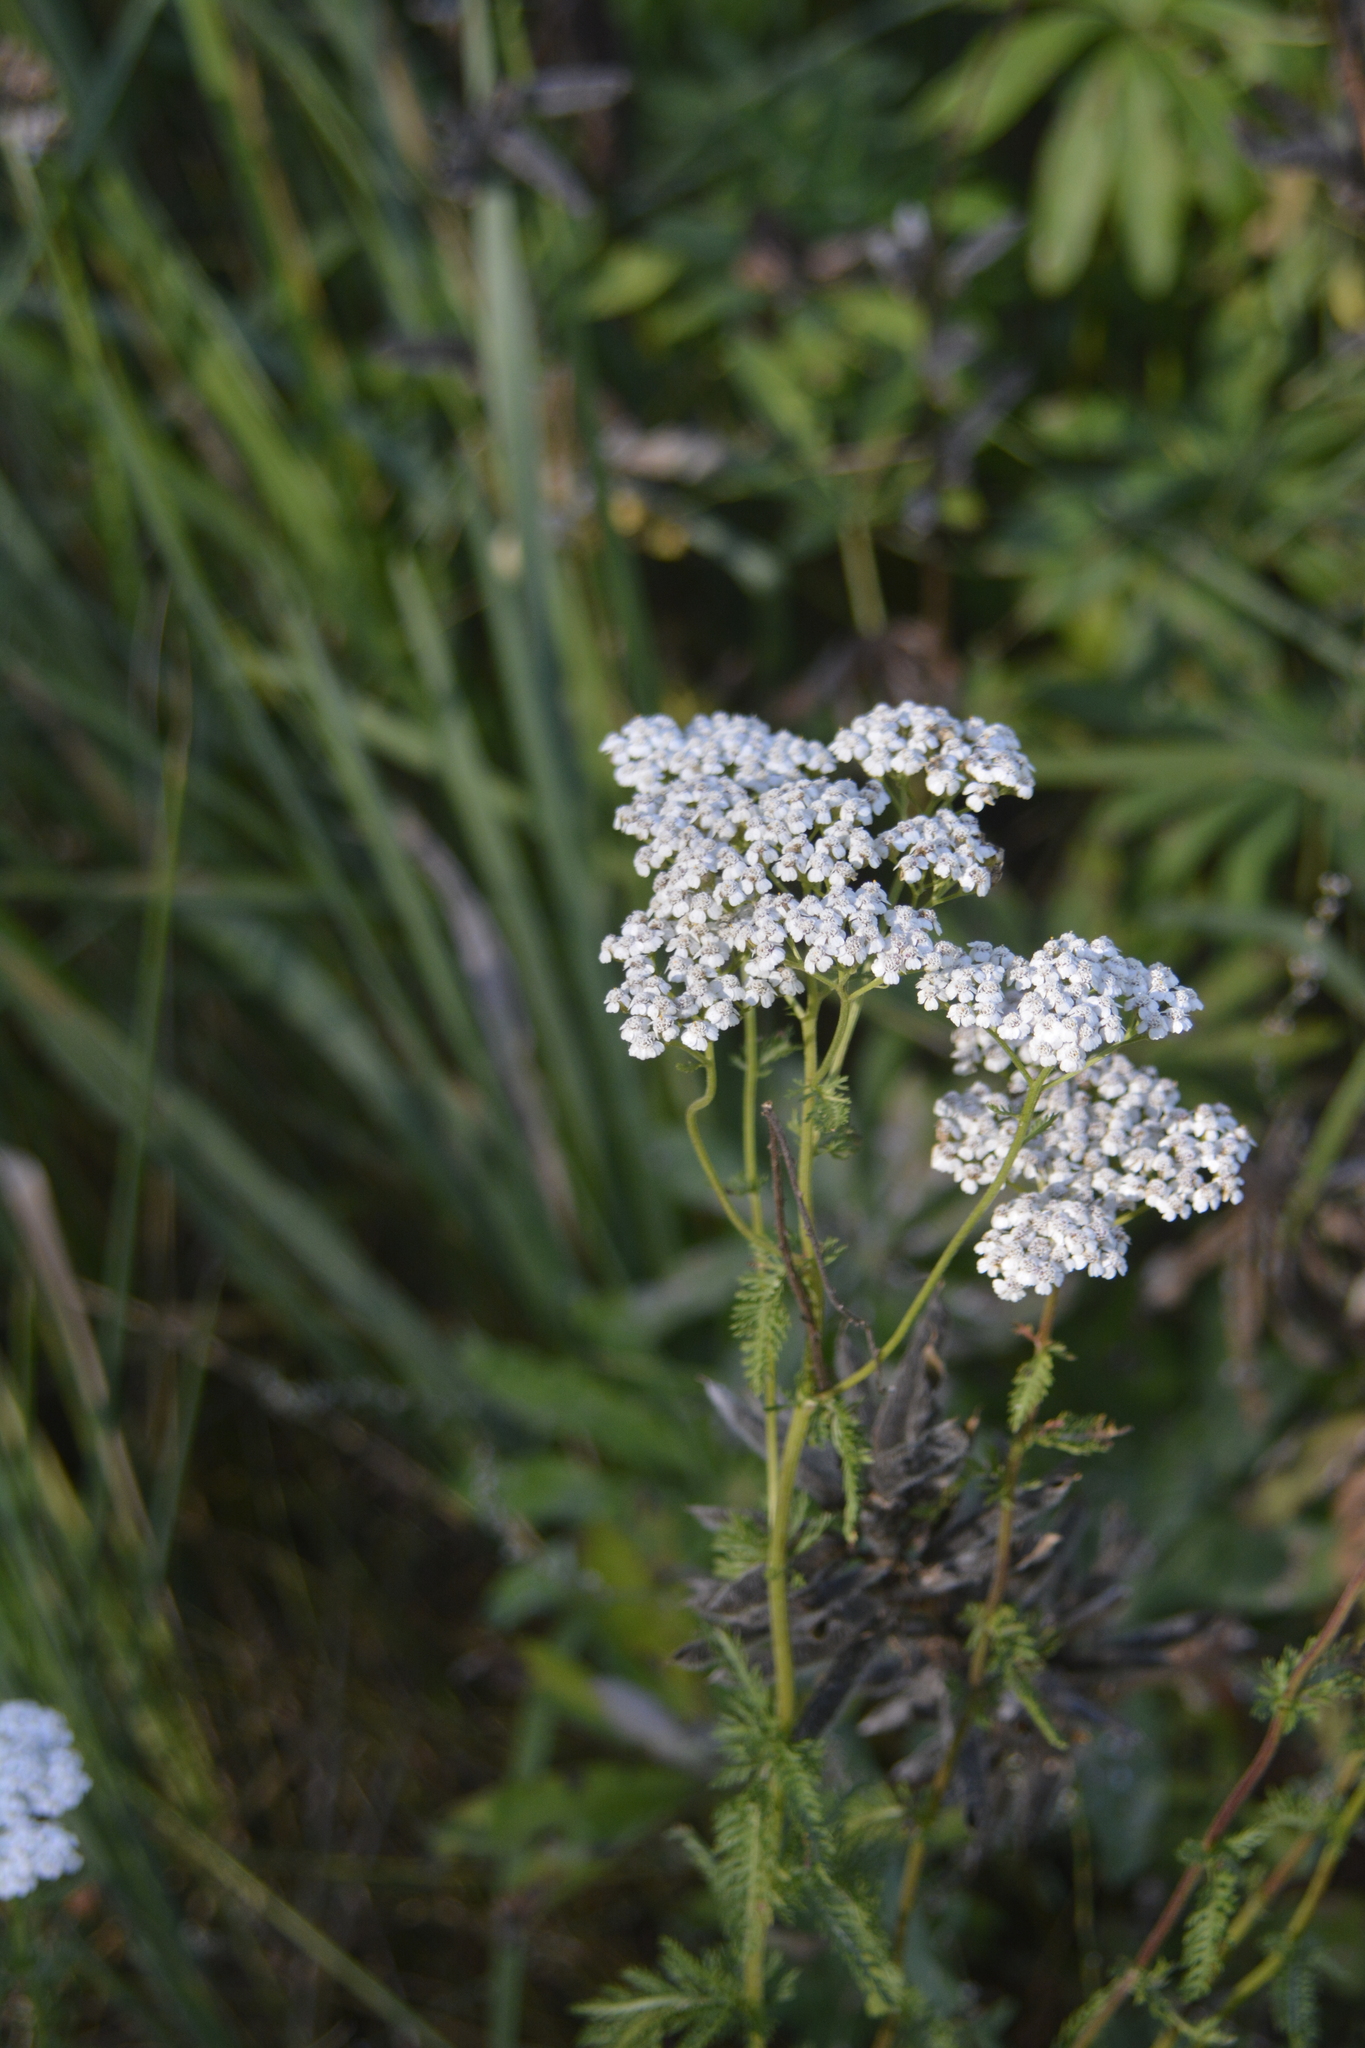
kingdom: Plantae
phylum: Tracheophyta
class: Magnoliopsida
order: Asterales
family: Asteraceae
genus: Achillea
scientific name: Achillea millefolium
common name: Yarrow
